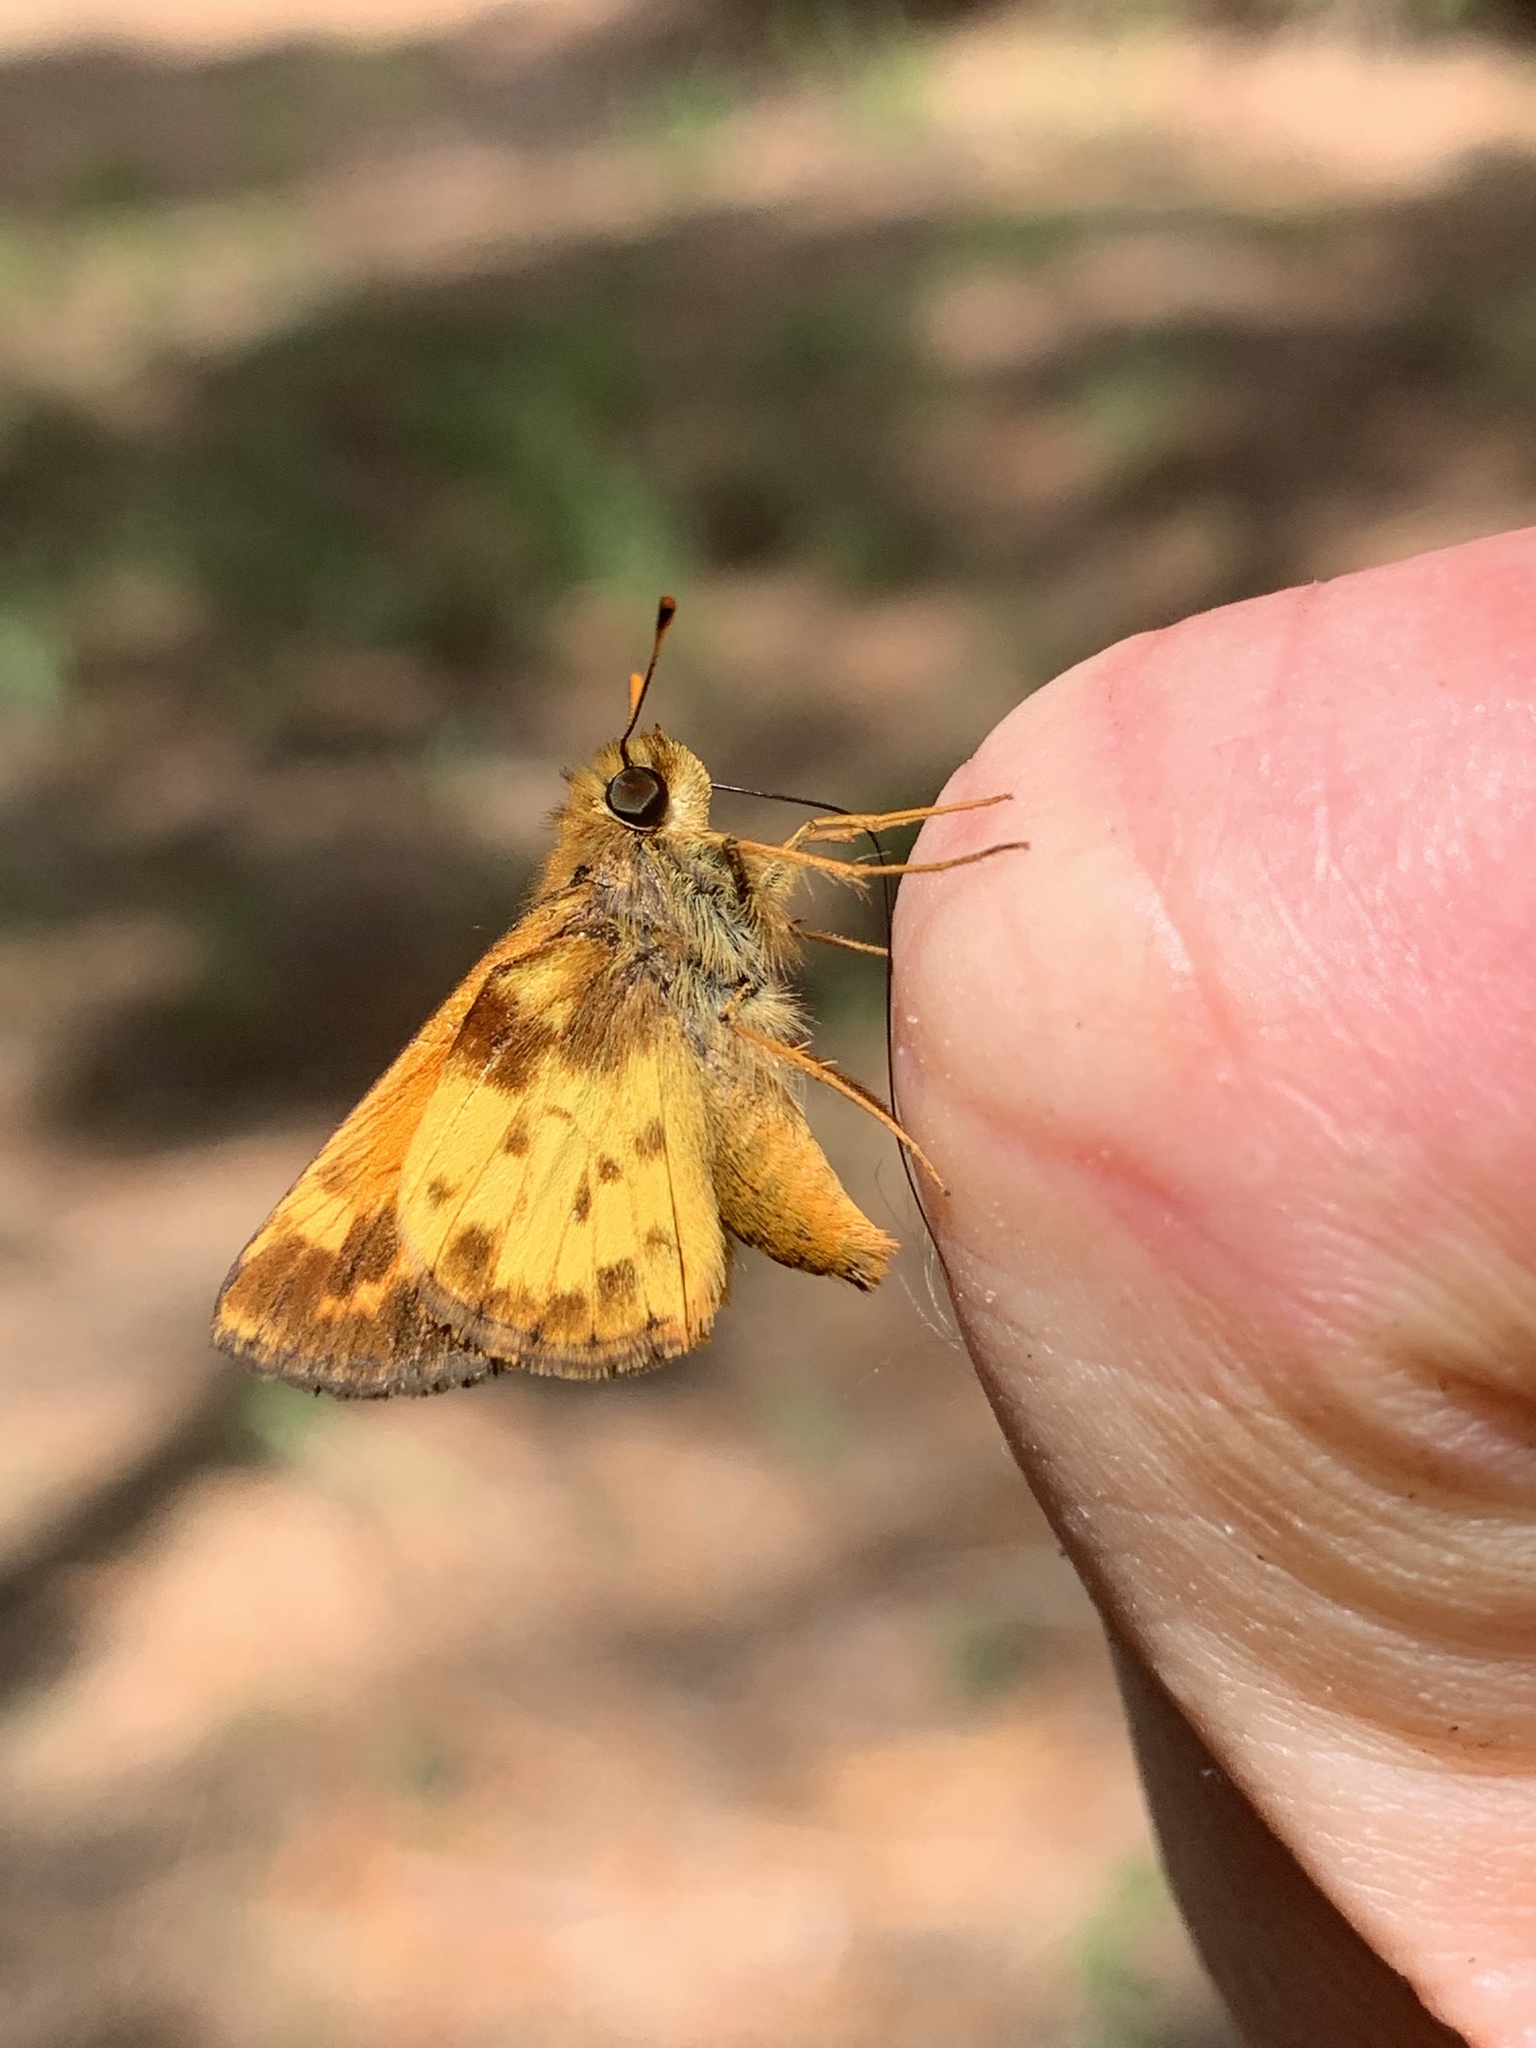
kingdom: Animalia
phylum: Arthropoda
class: Insecta
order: Lepidoptera
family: Hesperiidae
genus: Lon
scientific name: Lon zabulon
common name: Zabulon skipper
